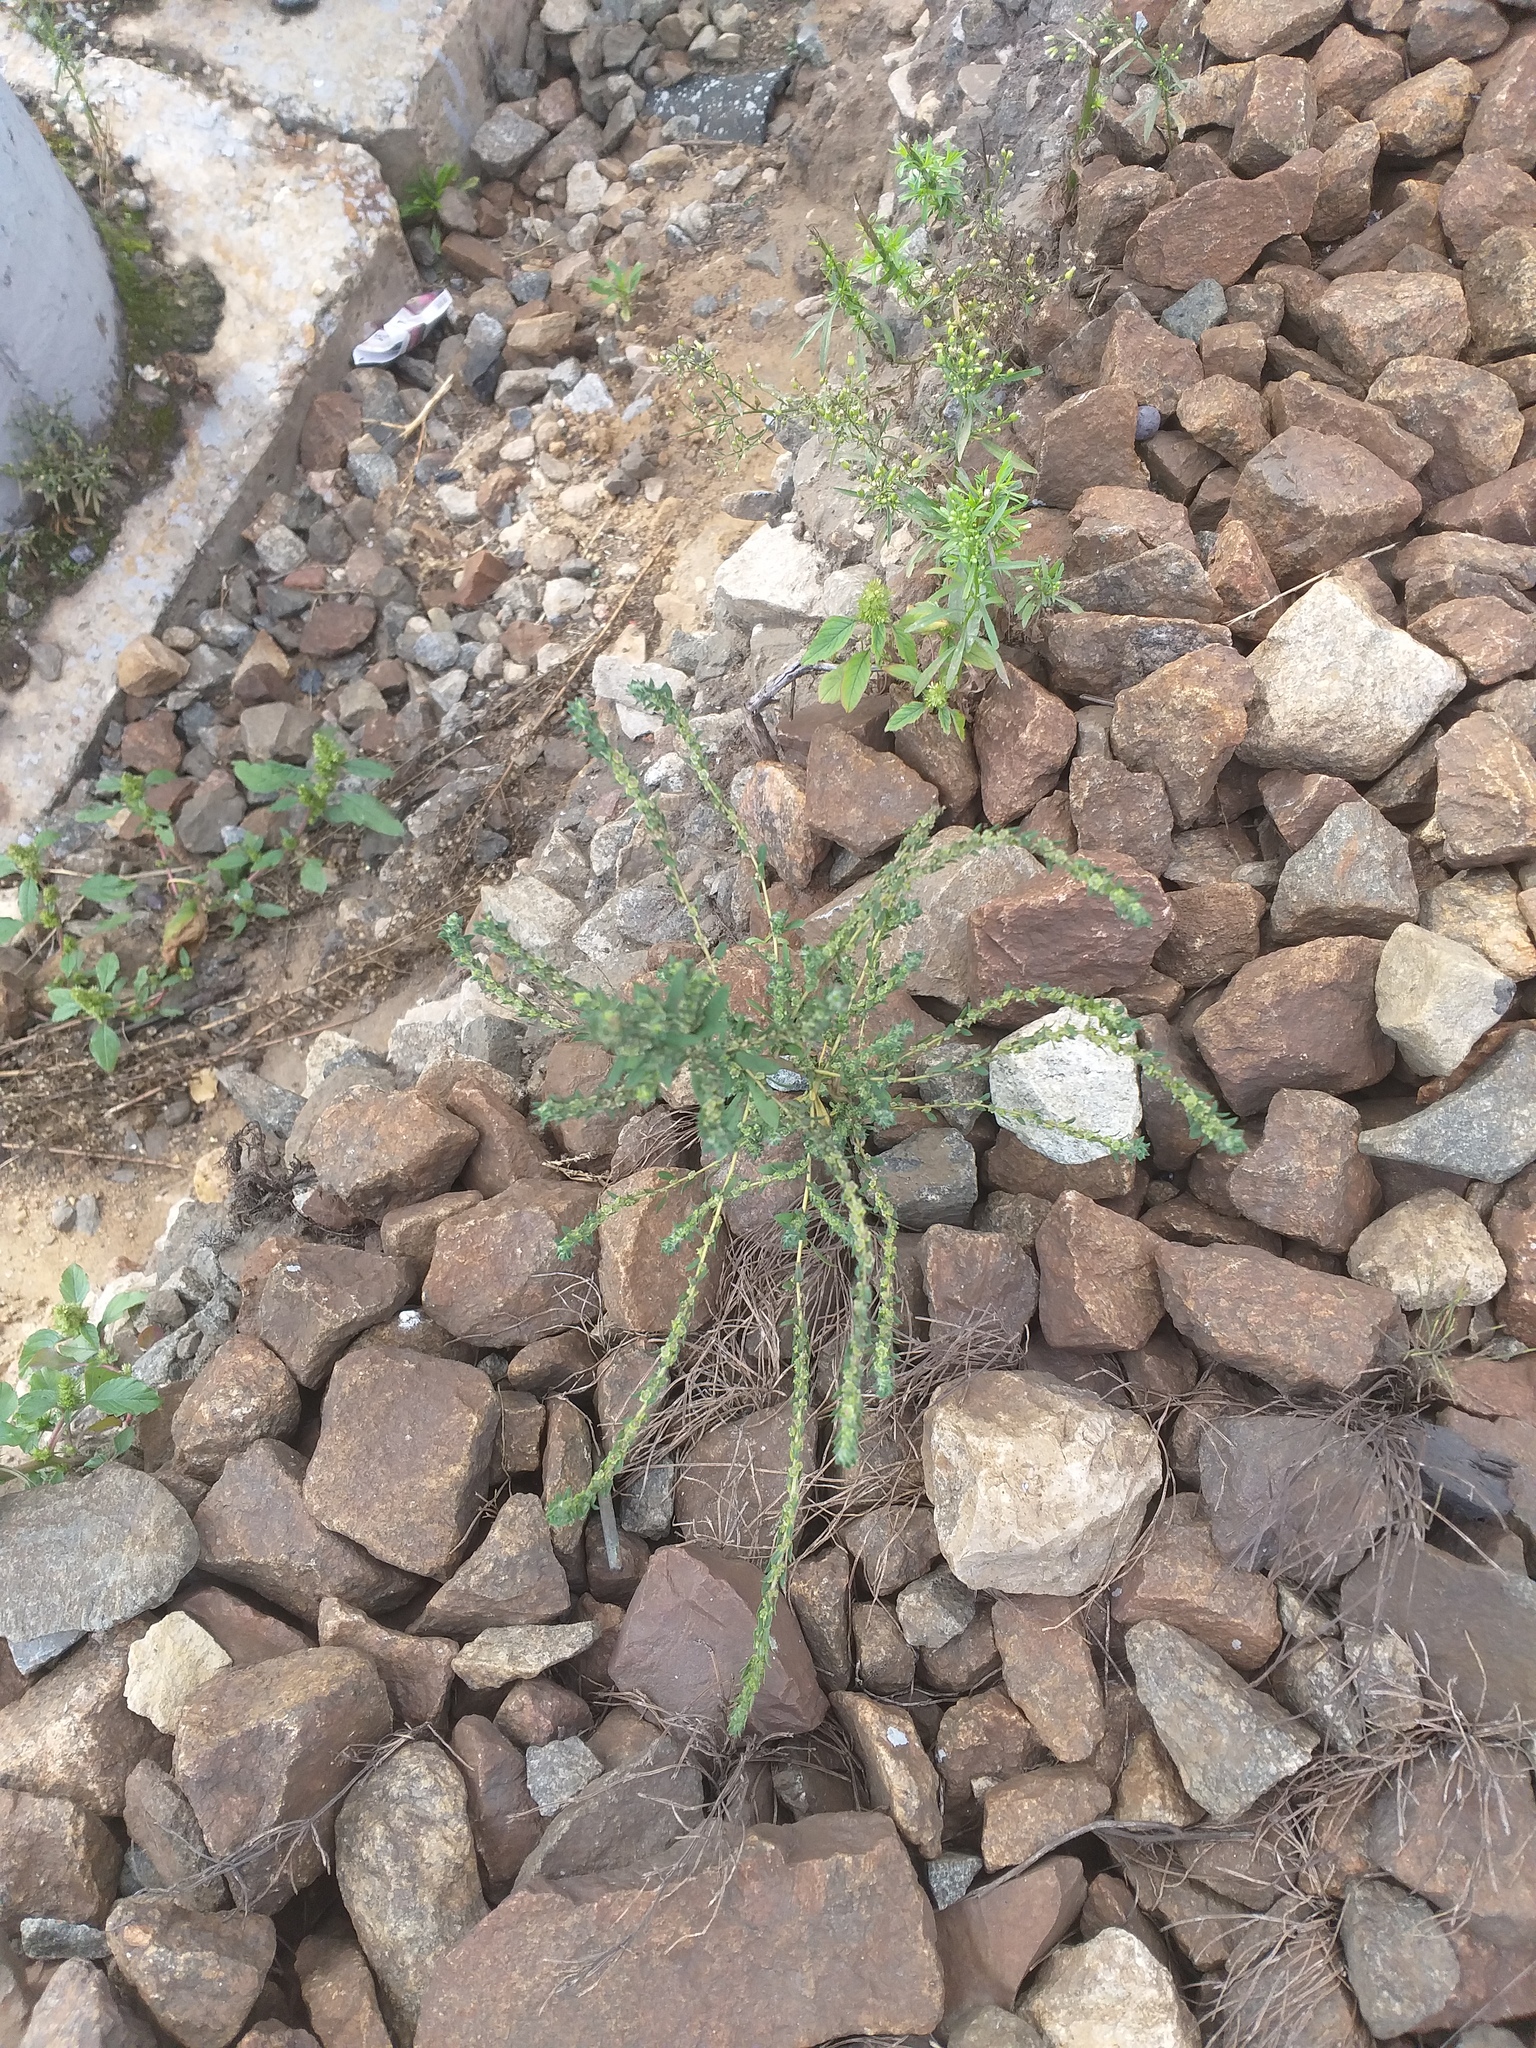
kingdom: Plantae
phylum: Tracheophyta
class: Magnoliopsida
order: Caryophyllales
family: Amaranthaceae
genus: Bassia
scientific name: Bassia scoparia
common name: Belvedere
